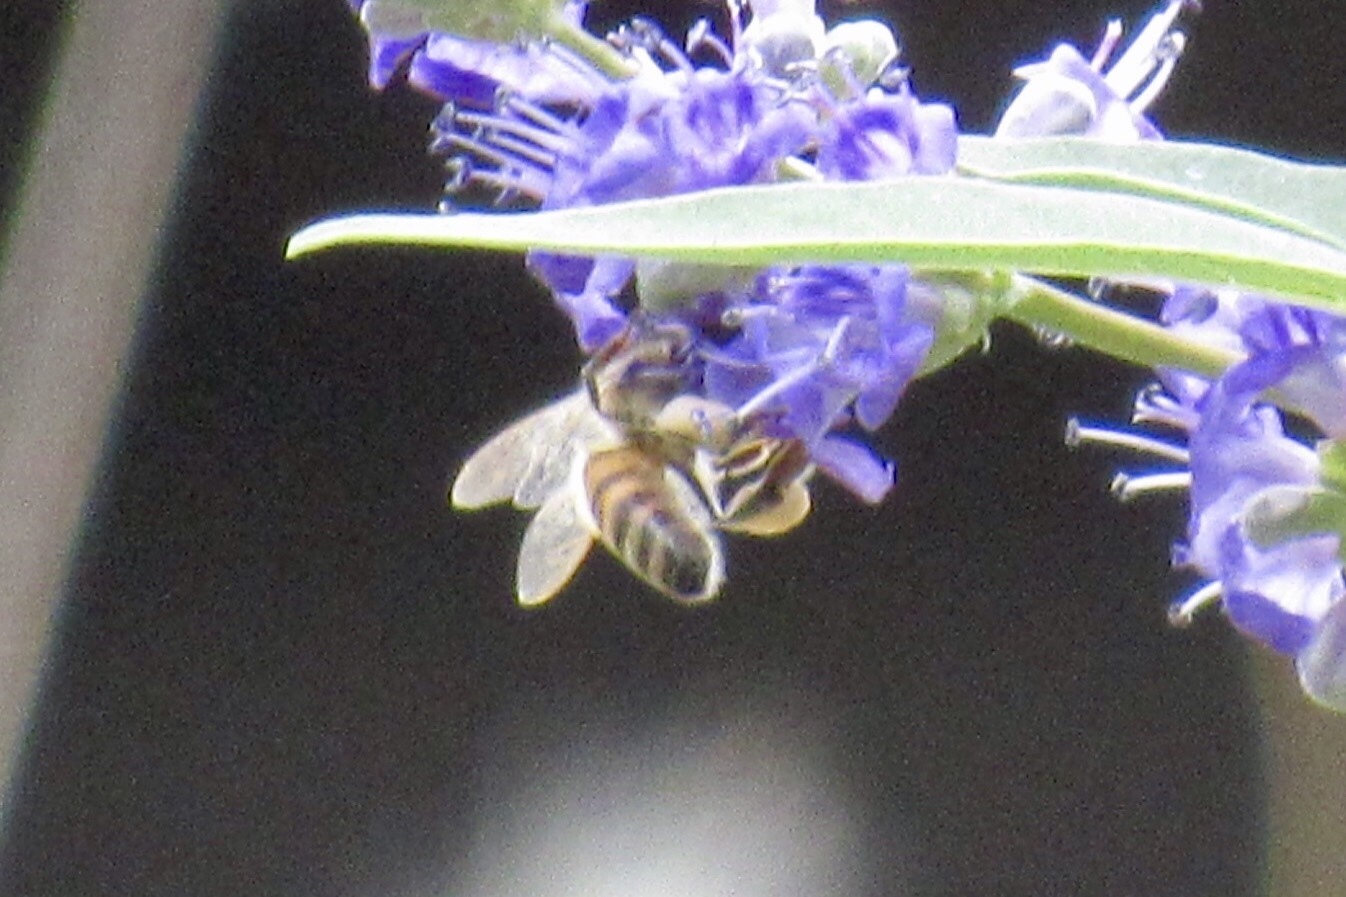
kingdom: Animalia
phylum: Arthropoda
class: Insecta
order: Hymenoptera
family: Apidae
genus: Apis
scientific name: Apis mellifera
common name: Honey bee
